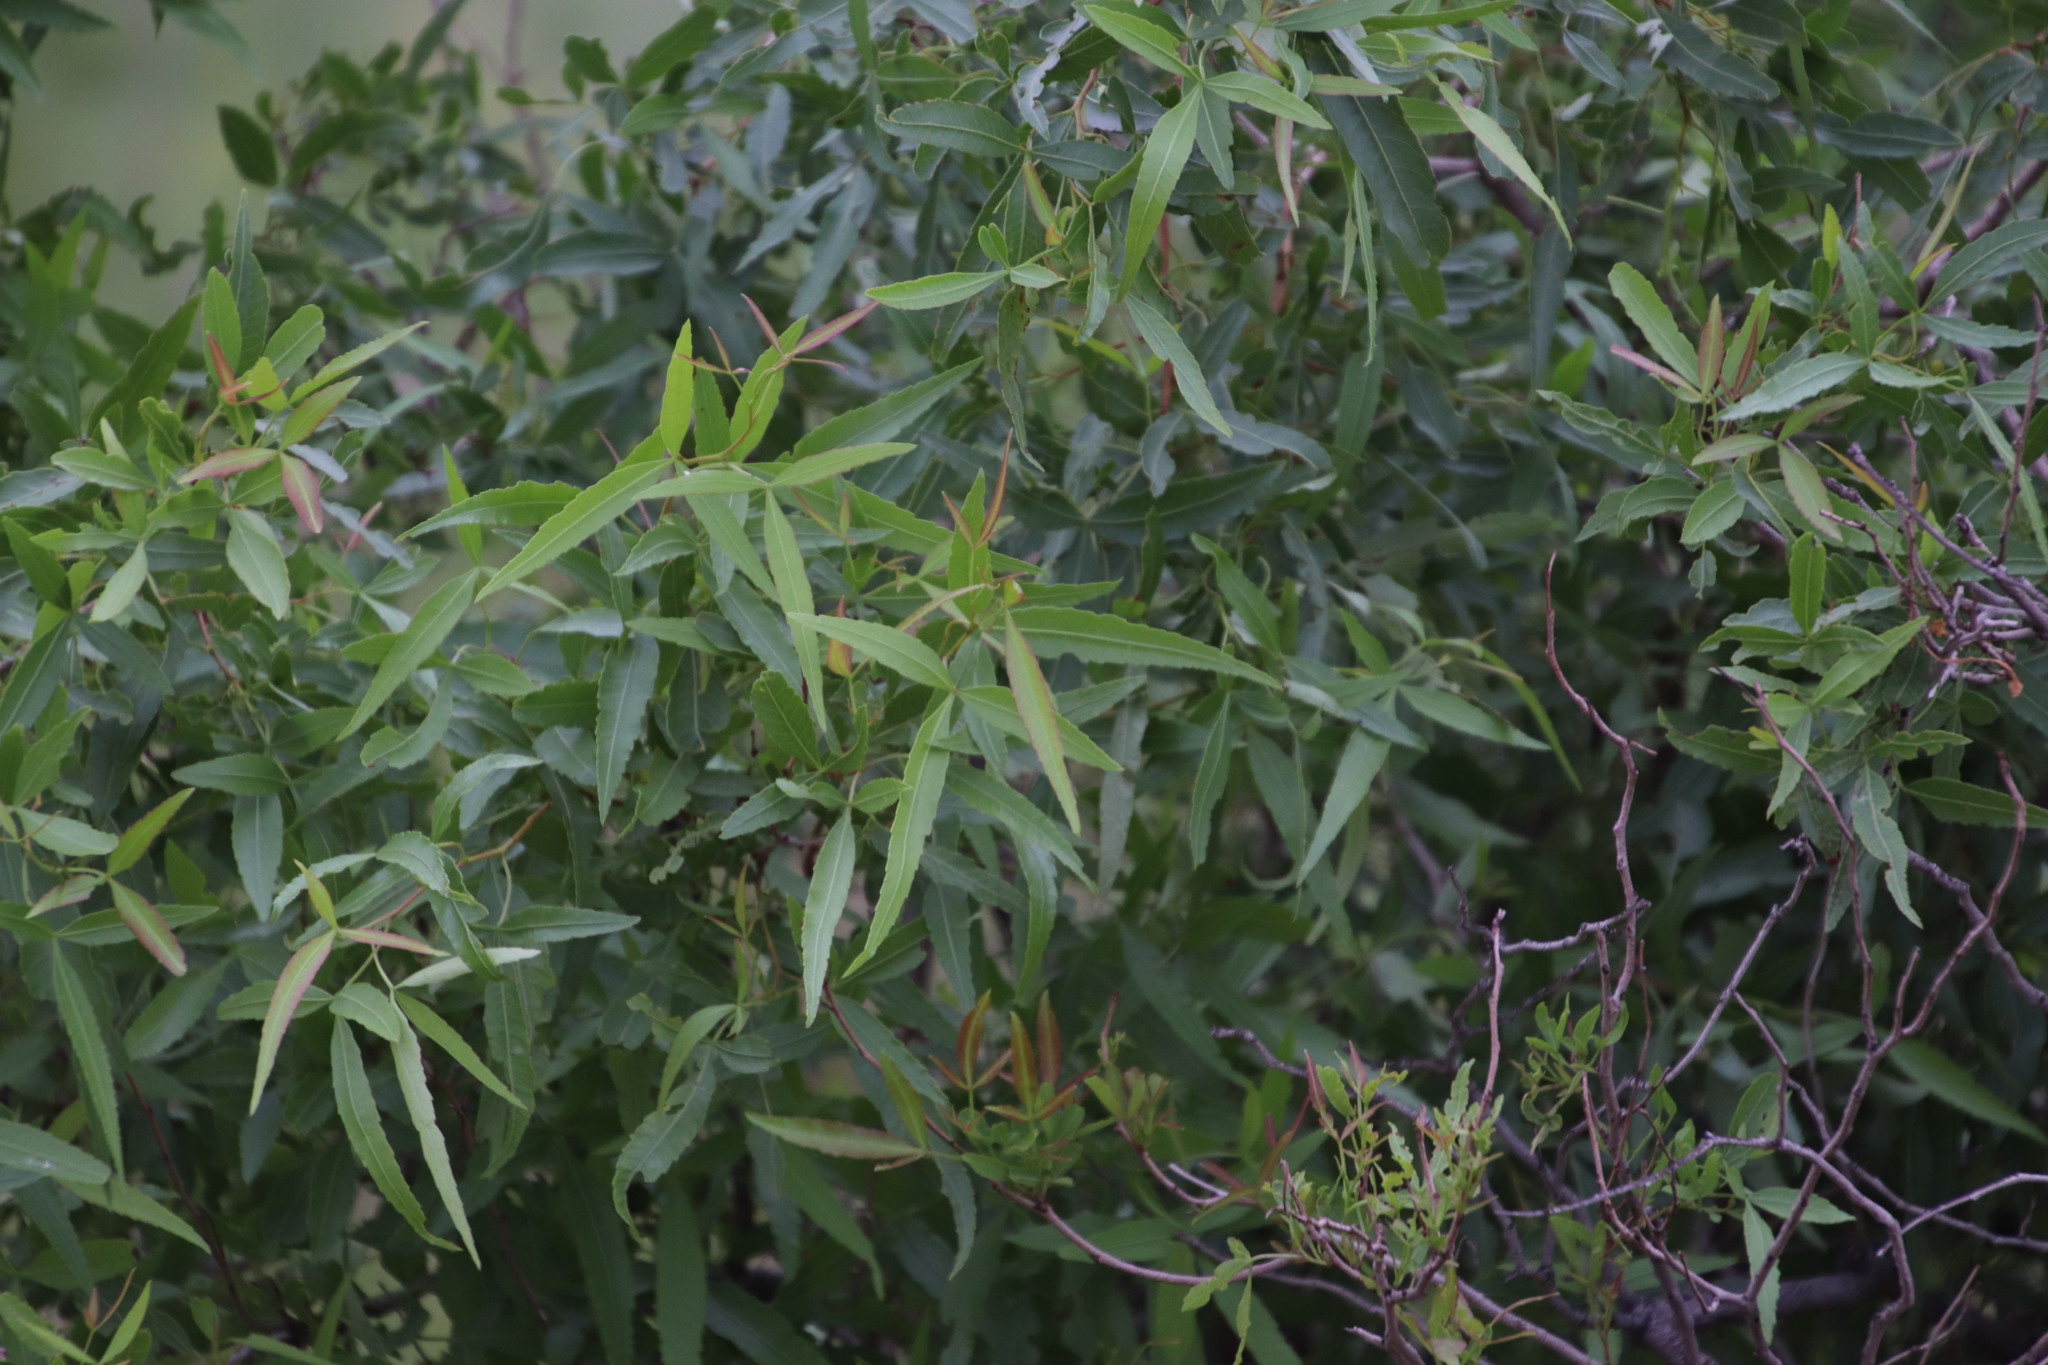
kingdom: Plantae
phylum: Tracheophyta
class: Magnoliopsida
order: Sapindales
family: Anacardiaceae
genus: Searsia
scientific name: Searsia lancea
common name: Cashew
